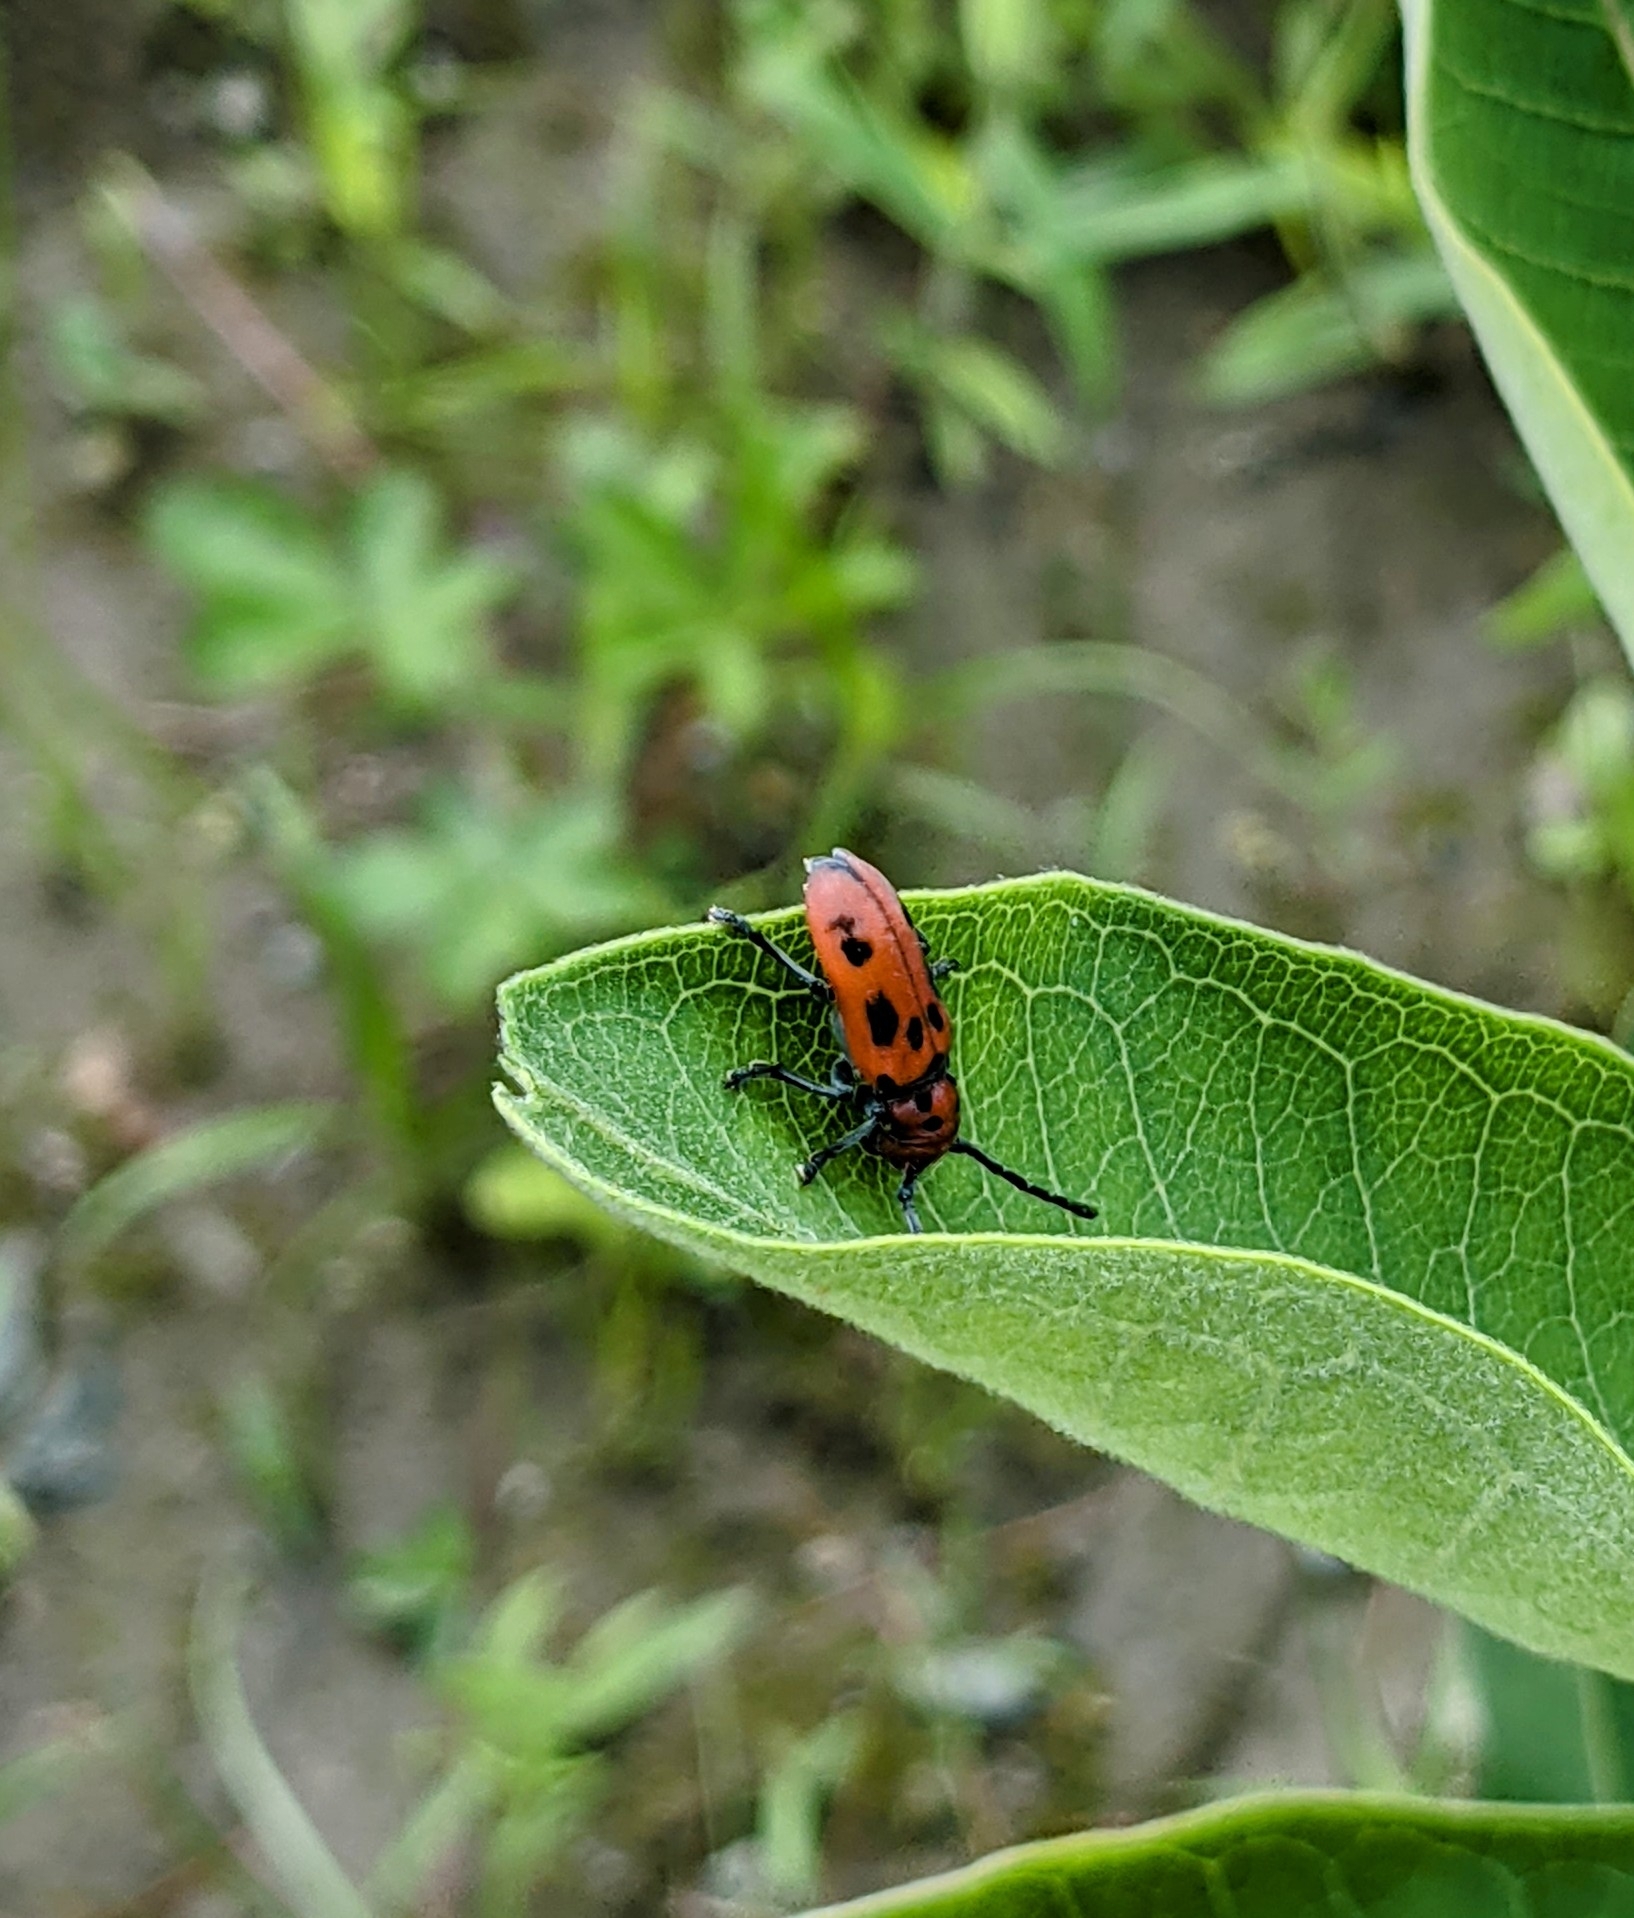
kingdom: Animalia
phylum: Arthropoda
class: Insecta
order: Coleoptera
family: Cerambycidae
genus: Tetraopes
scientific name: Tetraopes tetrophthalmus
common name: Red milkweed beetle
